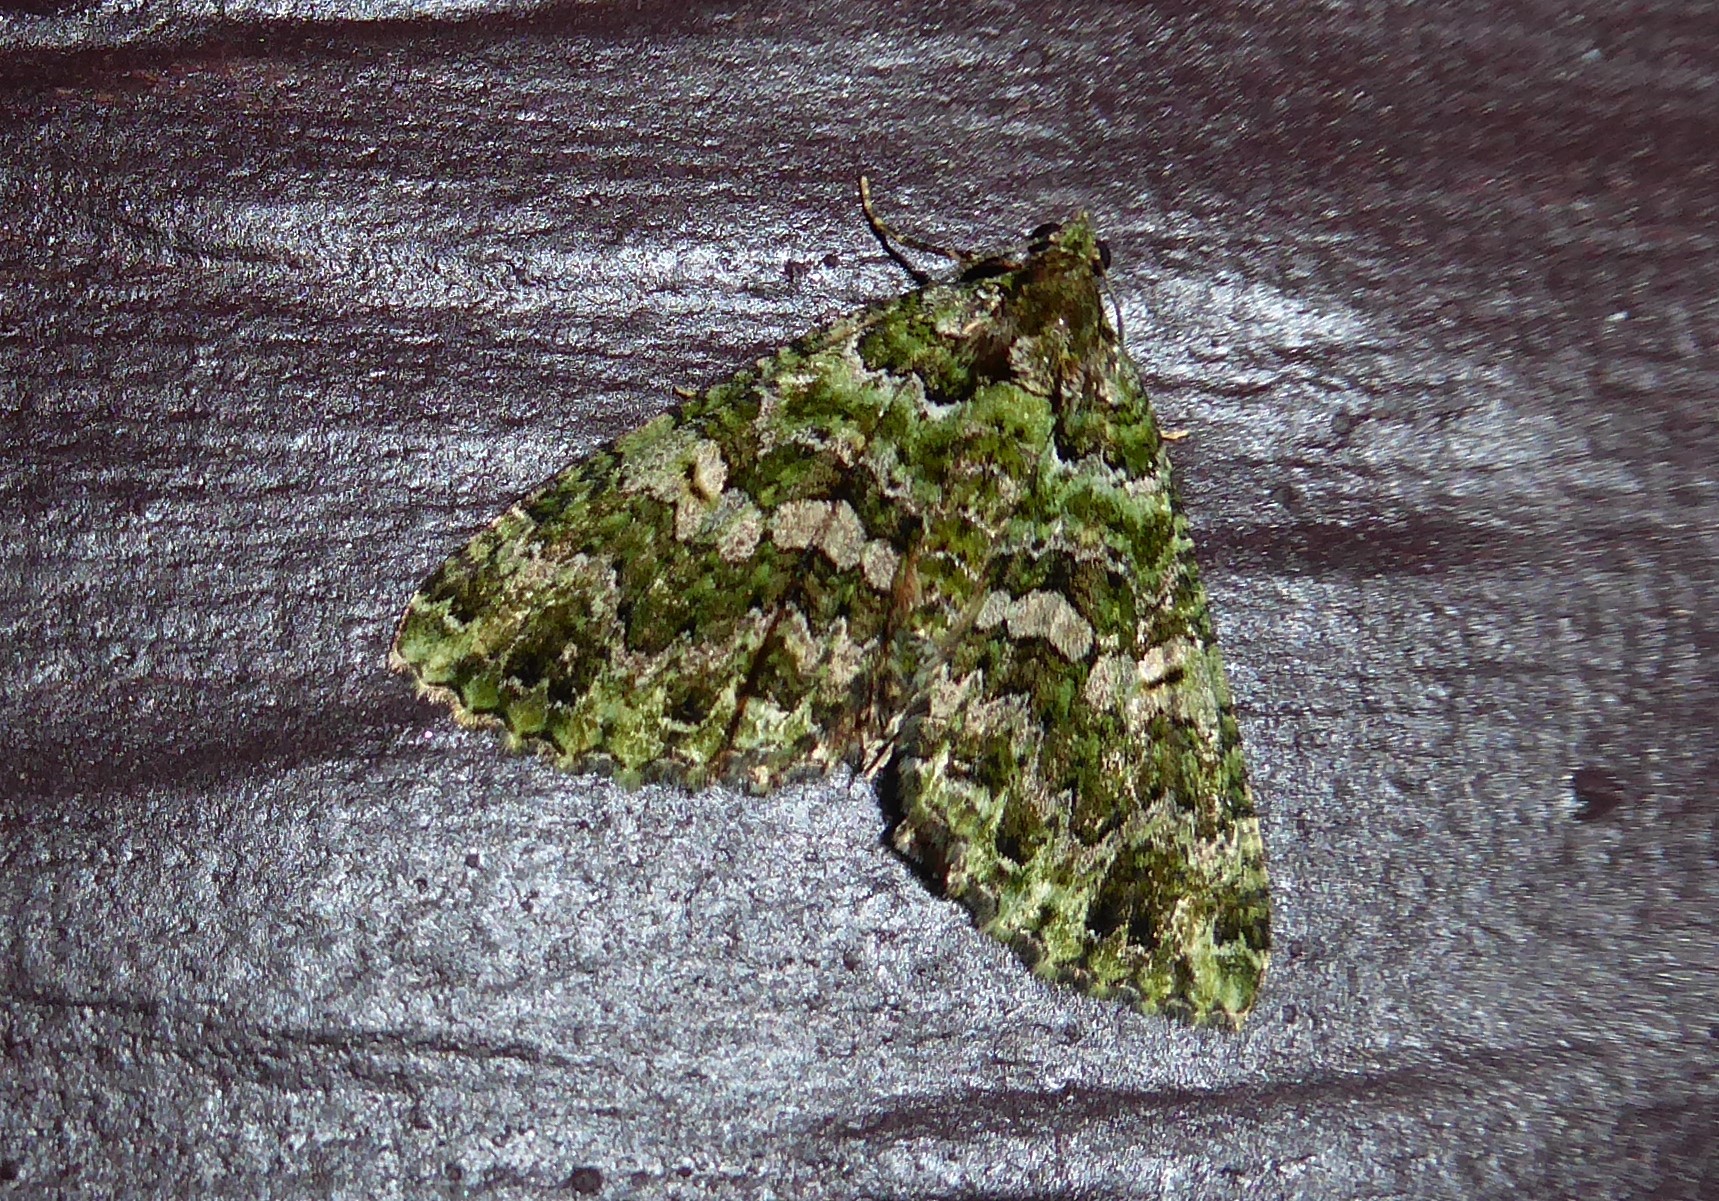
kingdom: Animalia
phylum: Arthropoda
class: Insecta
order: Lepidoptera
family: Geometridae
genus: Austrocidaria
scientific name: Austrocidaria similata
